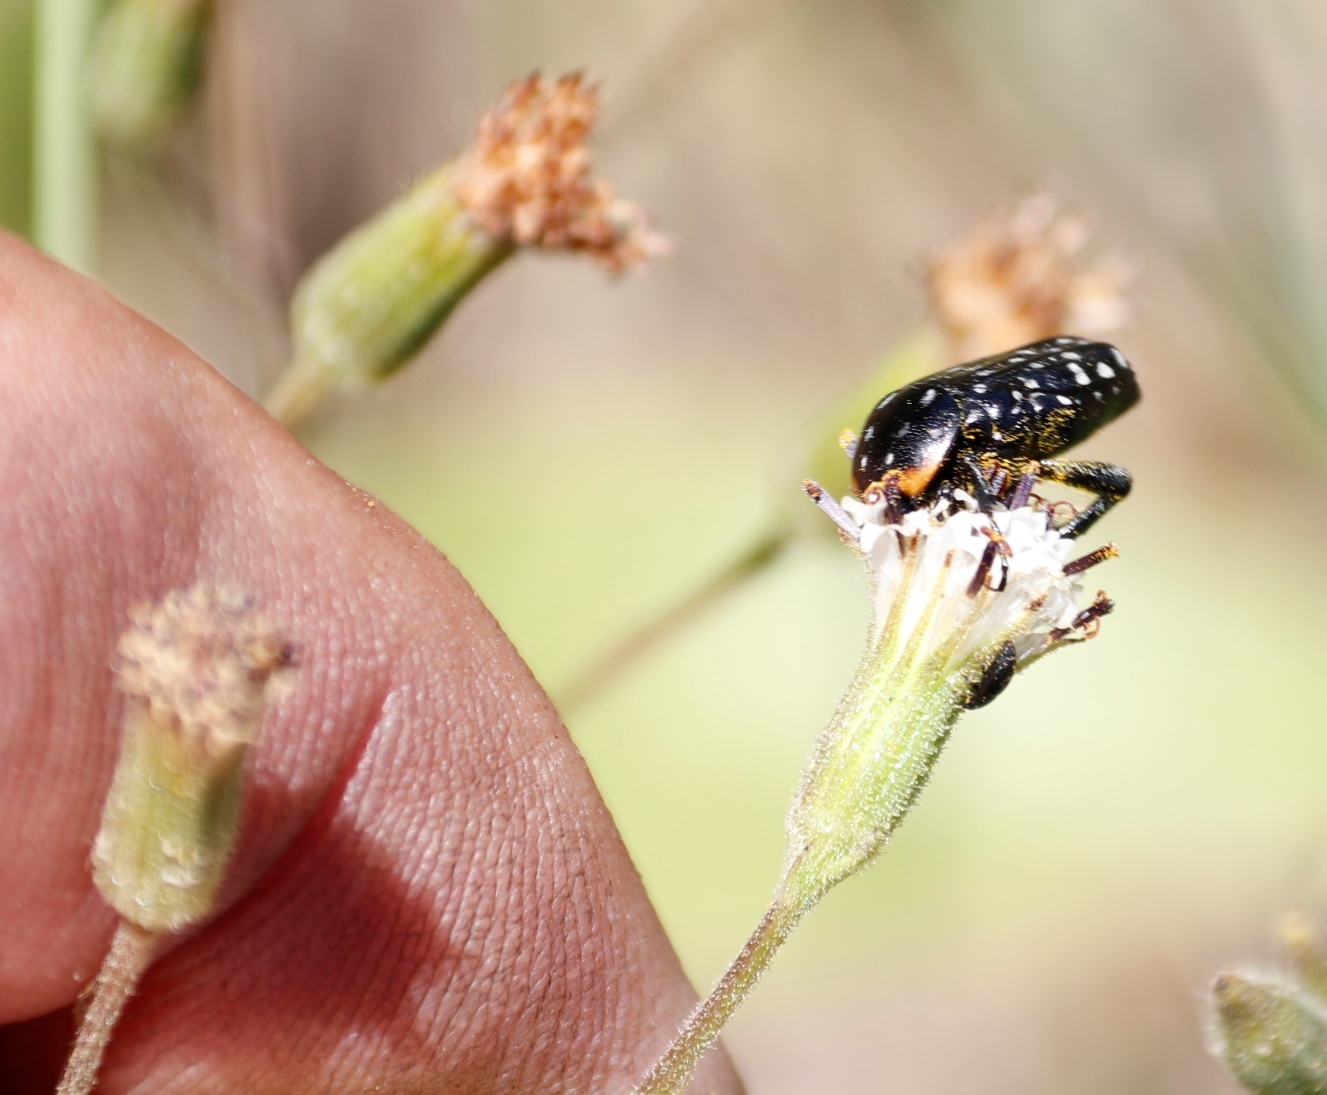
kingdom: Plantae
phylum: Tracheophyta
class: Magnoliopsida
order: Asterales
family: Asteraceae
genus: Senecio
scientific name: Senecio subrubriflorus
